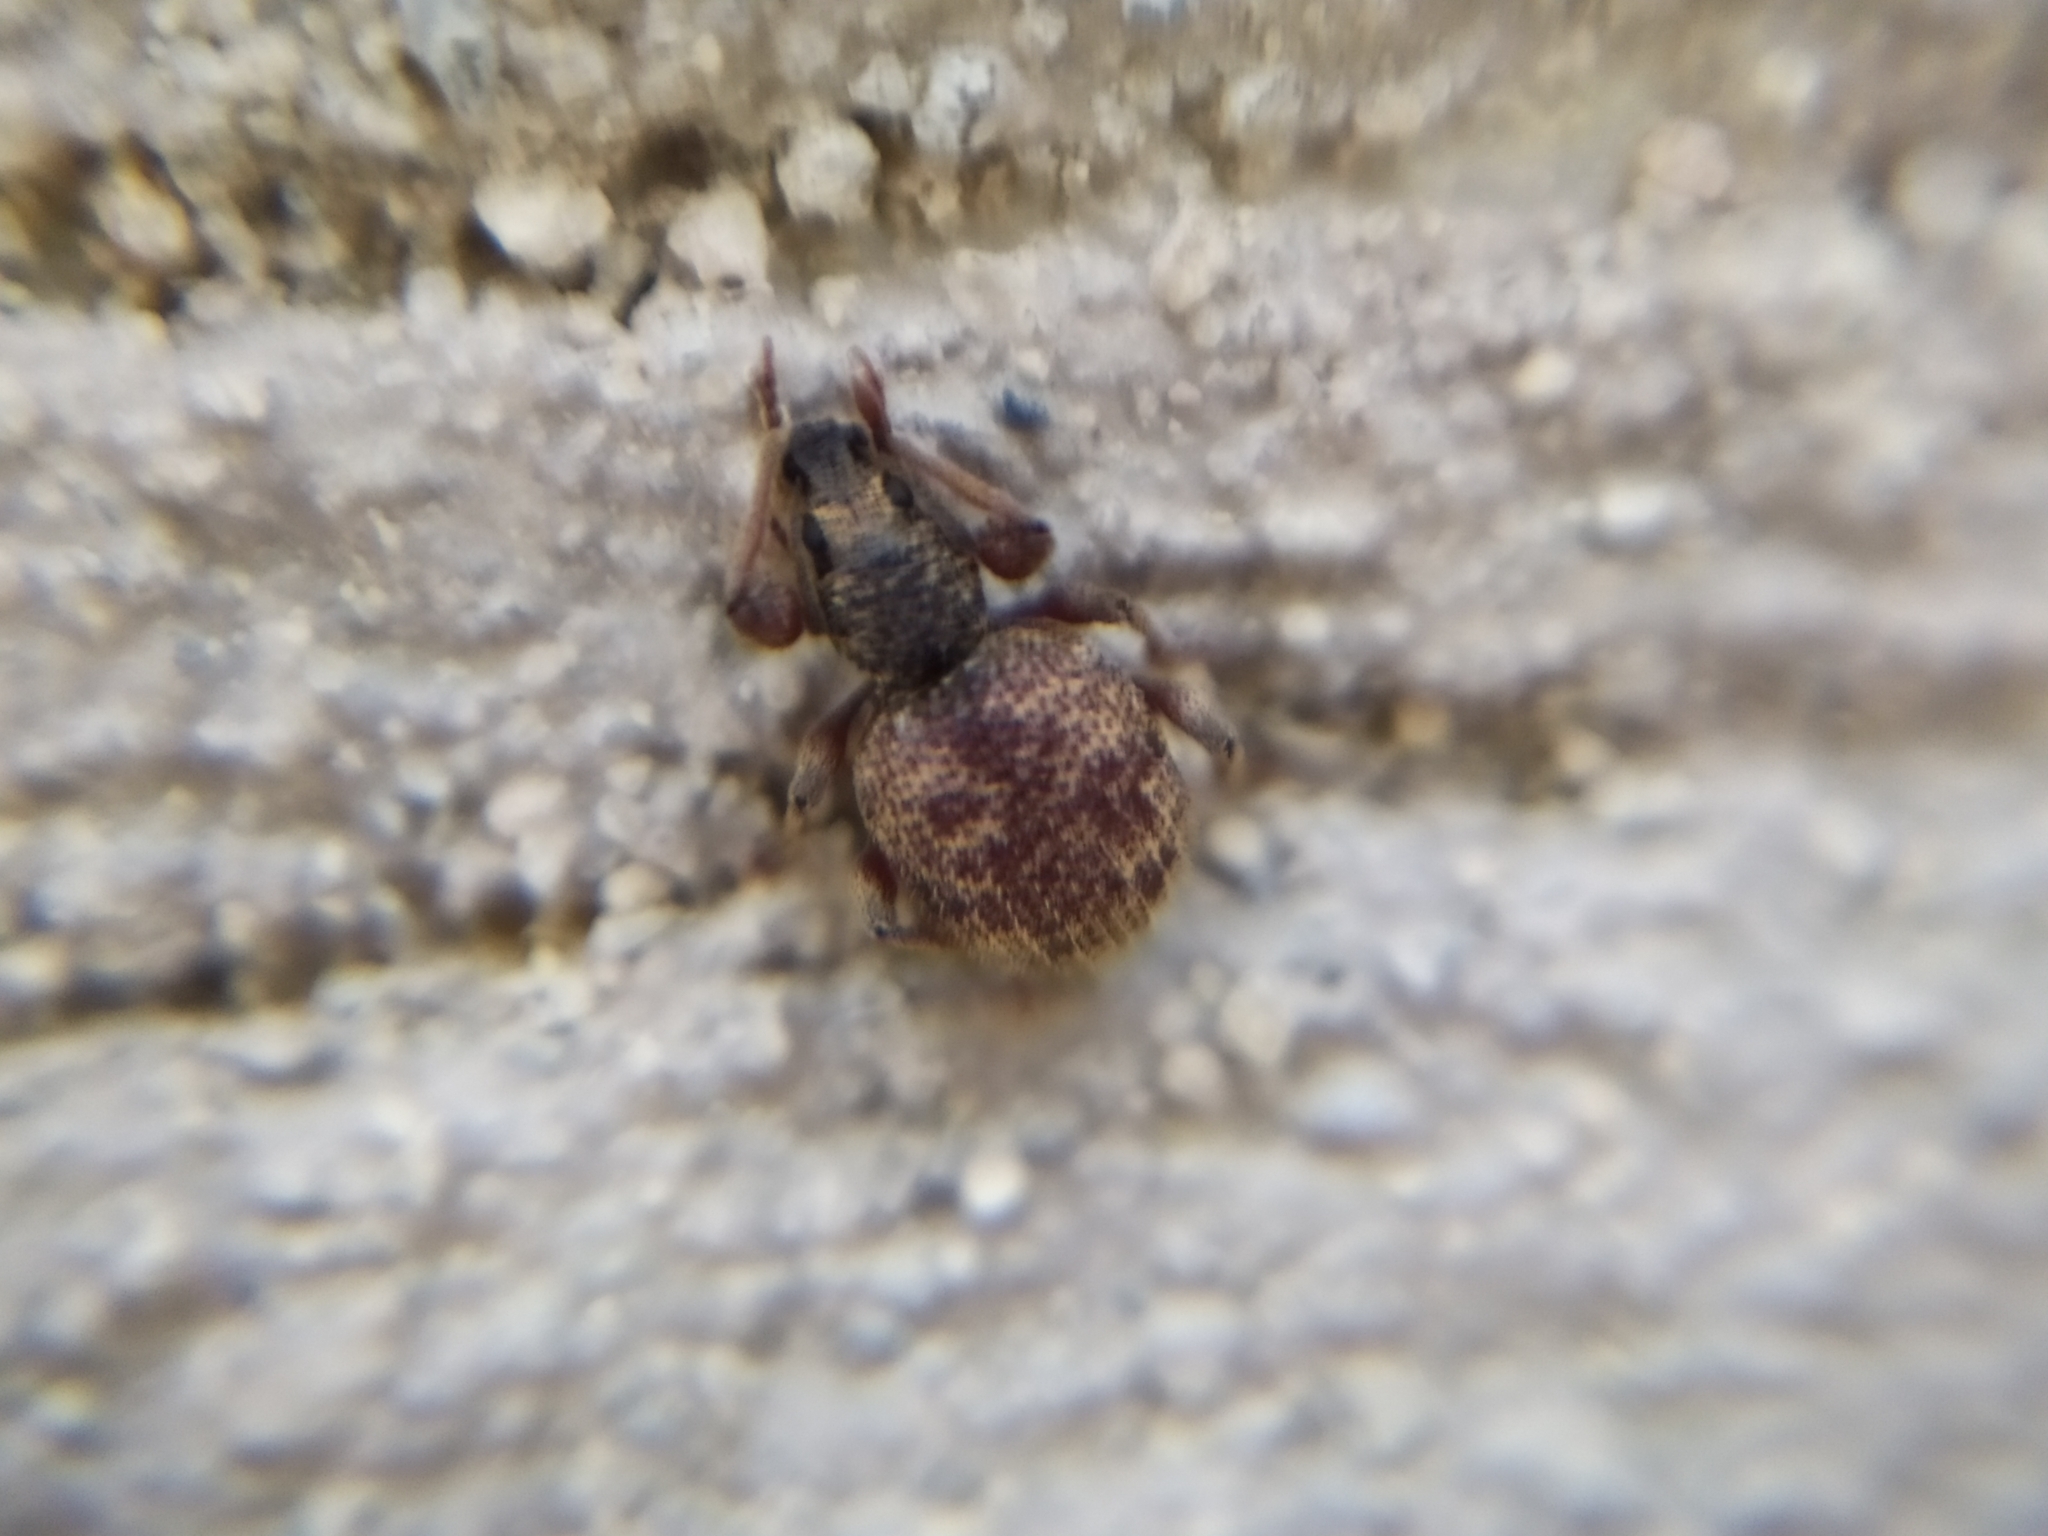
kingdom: Animalia
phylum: Arthropoda
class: Insecta
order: Coleoptera
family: Curculionidae
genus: Otiorhynchus
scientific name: Otiorhynchus crataegi
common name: Privet weevil
